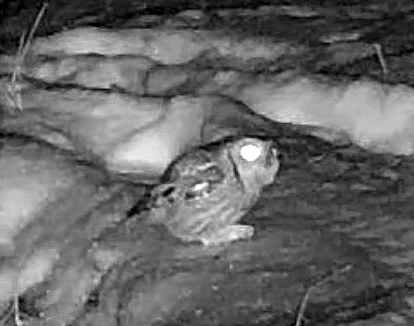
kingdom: Animalia
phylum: Chordata
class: Aves
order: Strigiformes
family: Strigidae
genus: Megascops
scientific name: Megascops asio
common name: Eastern screech-owl
